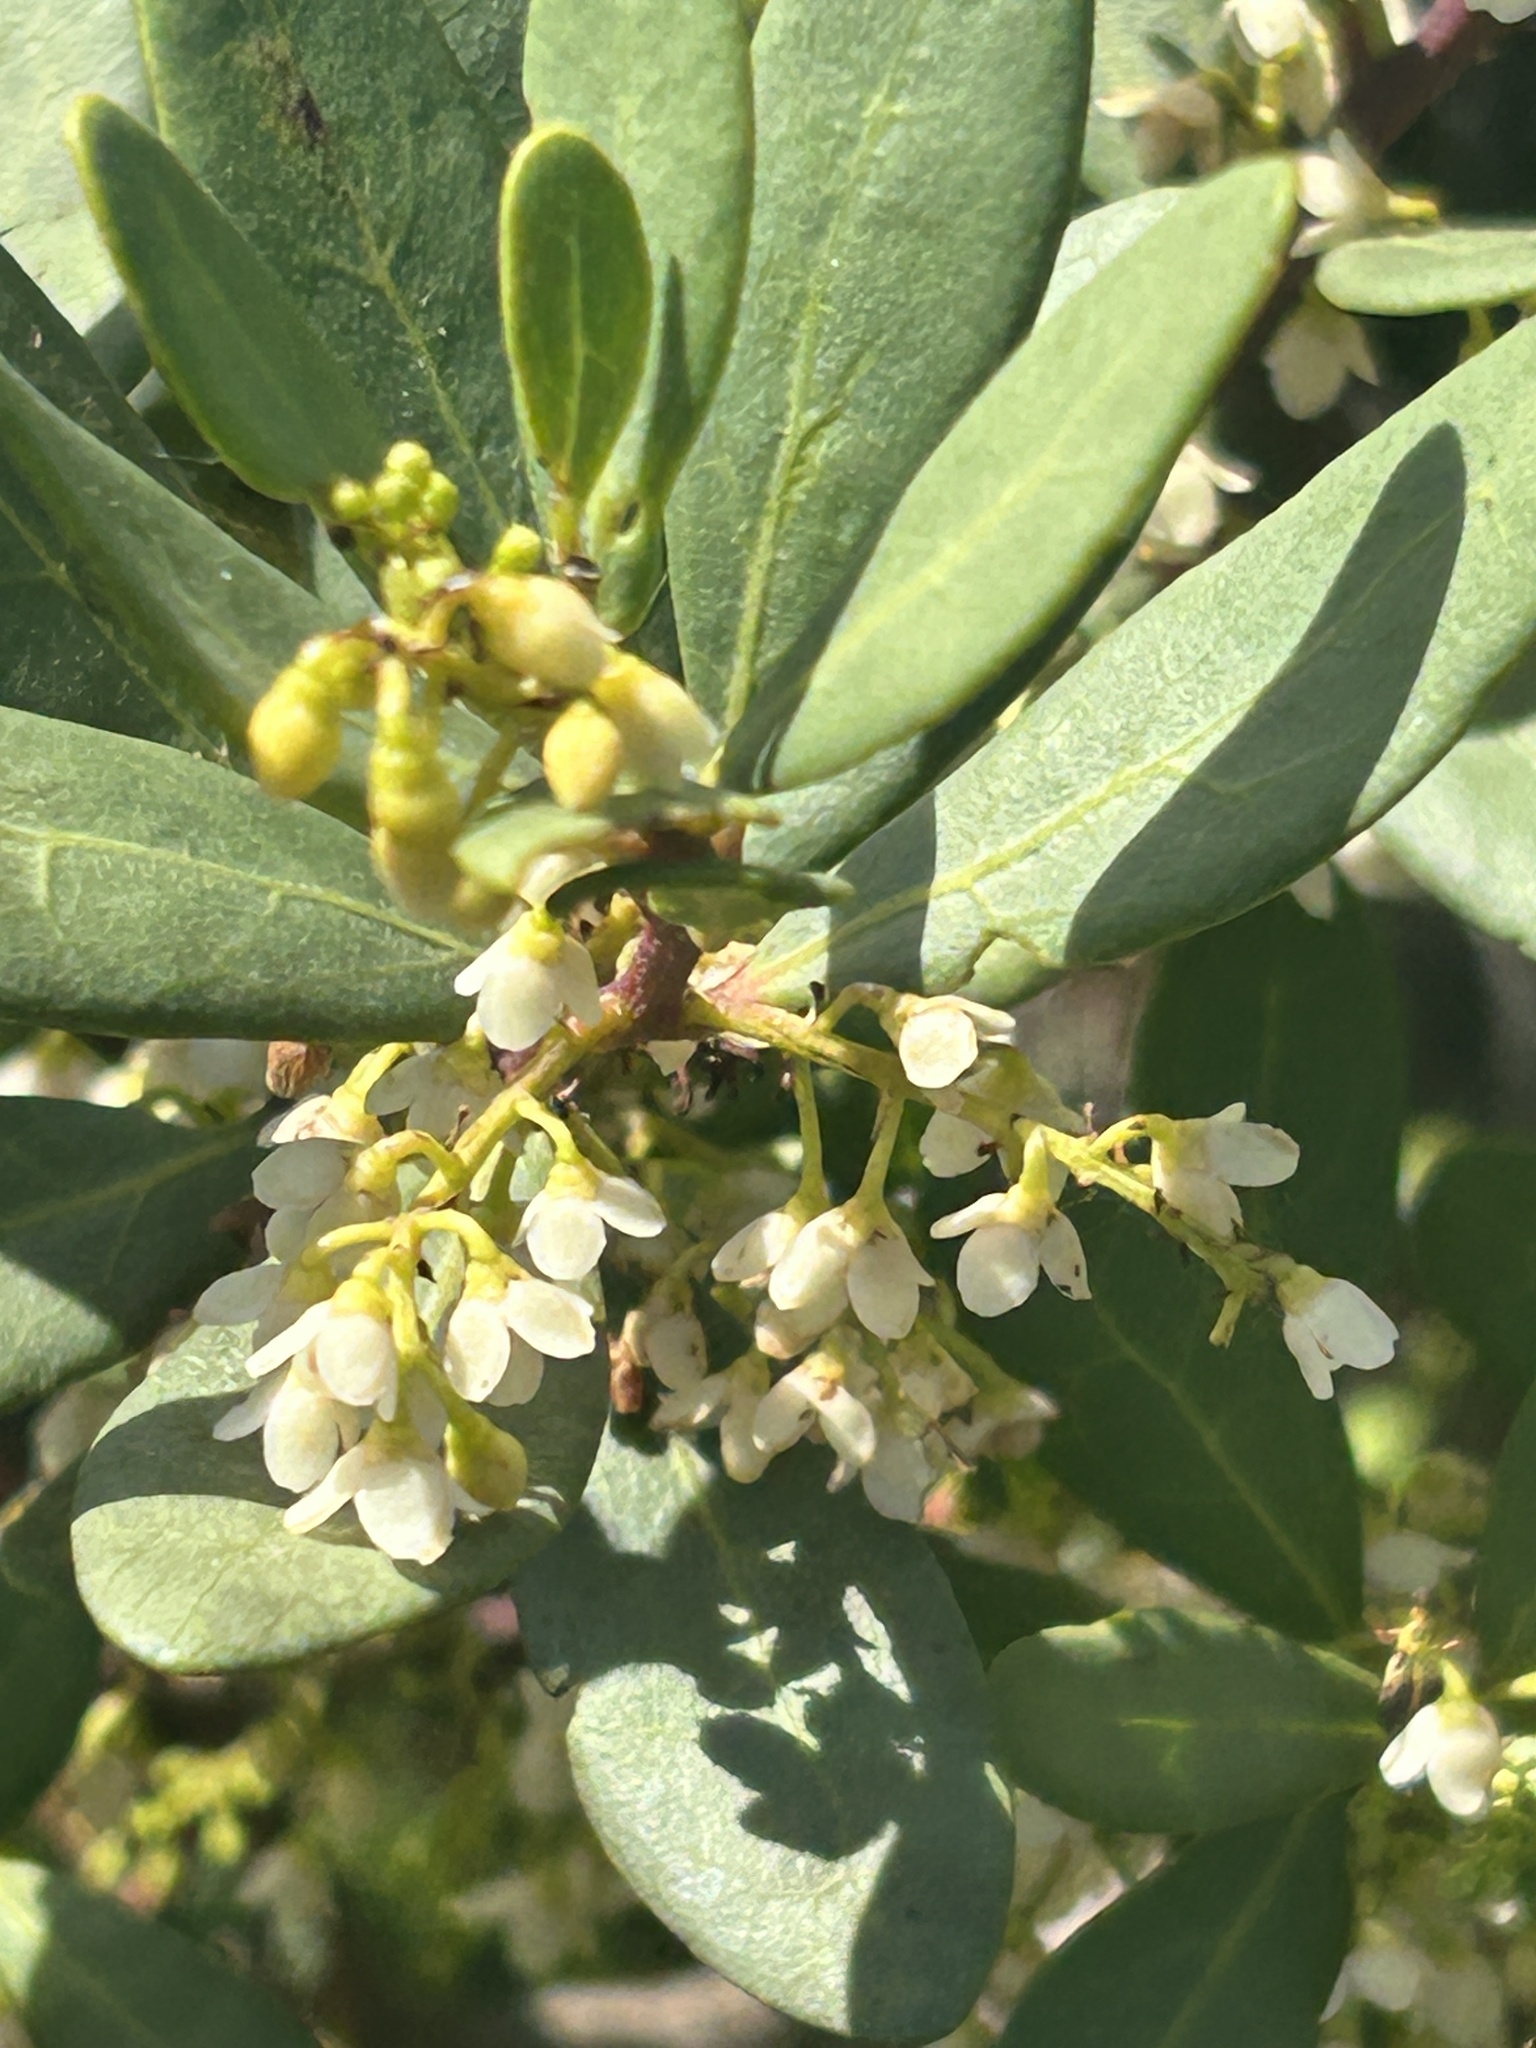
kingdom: Plantae
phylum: Tracheophyta
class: Magnoliopsida
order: Ericales
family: Ebenaceae
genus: Euclea
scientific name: Euclea racemosa
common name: Dune guarri
